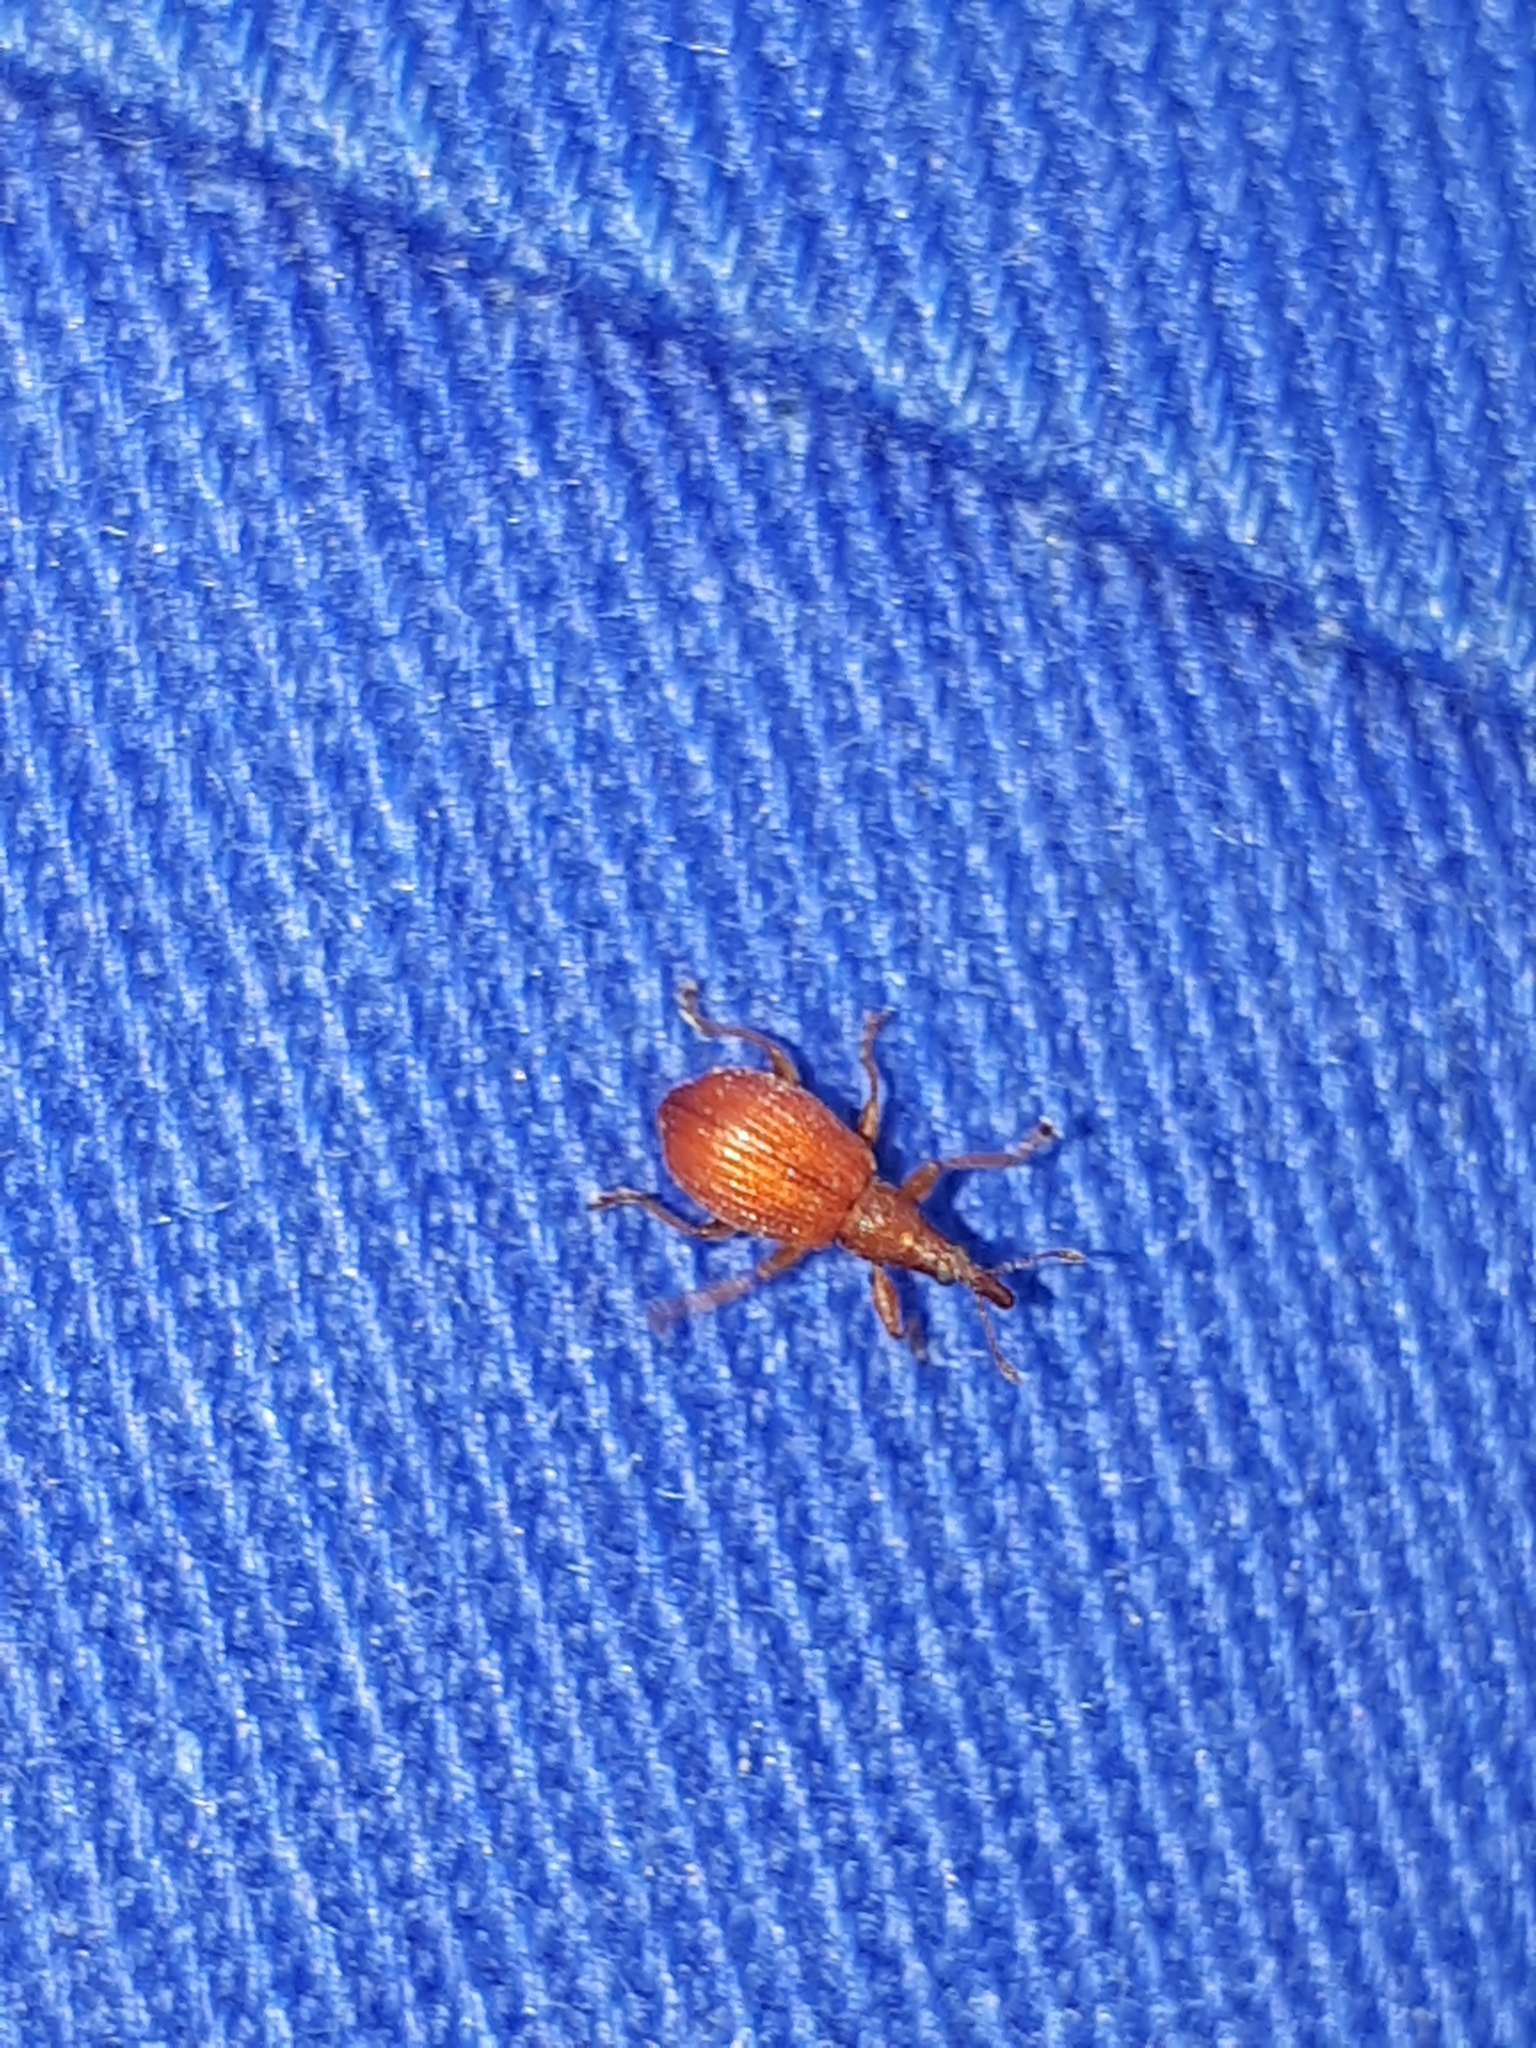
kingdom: Animalia
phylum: Arthropoda
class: Insecta
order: Coleoptera
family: Apionidae
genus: Apion
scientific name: Apion frumentarium
